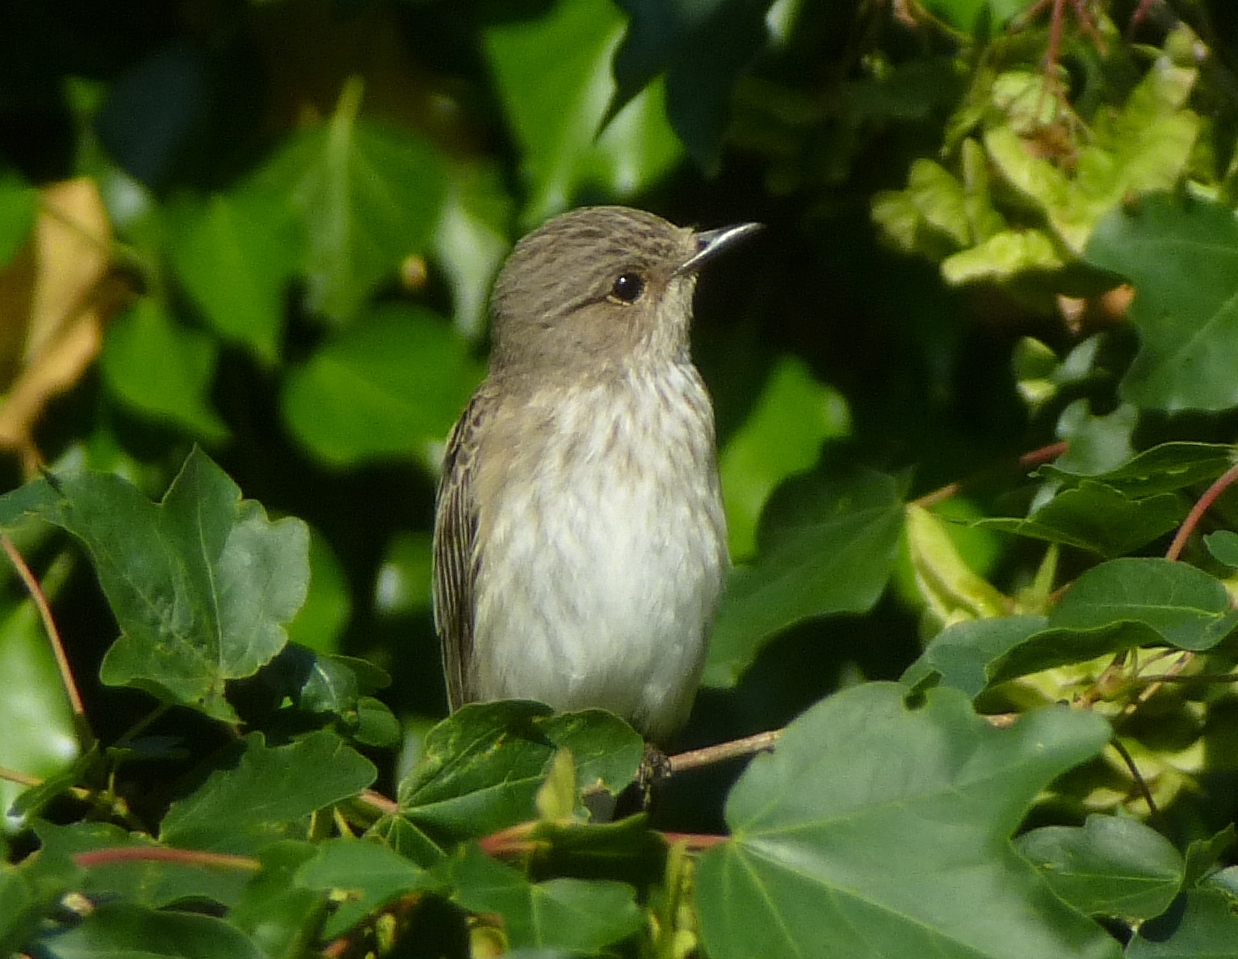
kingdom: Animalia
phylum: Chordata
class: Aves
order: Passeriformes
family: Muscicapidae
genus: Muscicapa
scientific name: Muscicapa striata
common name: Spotted flycatcher
